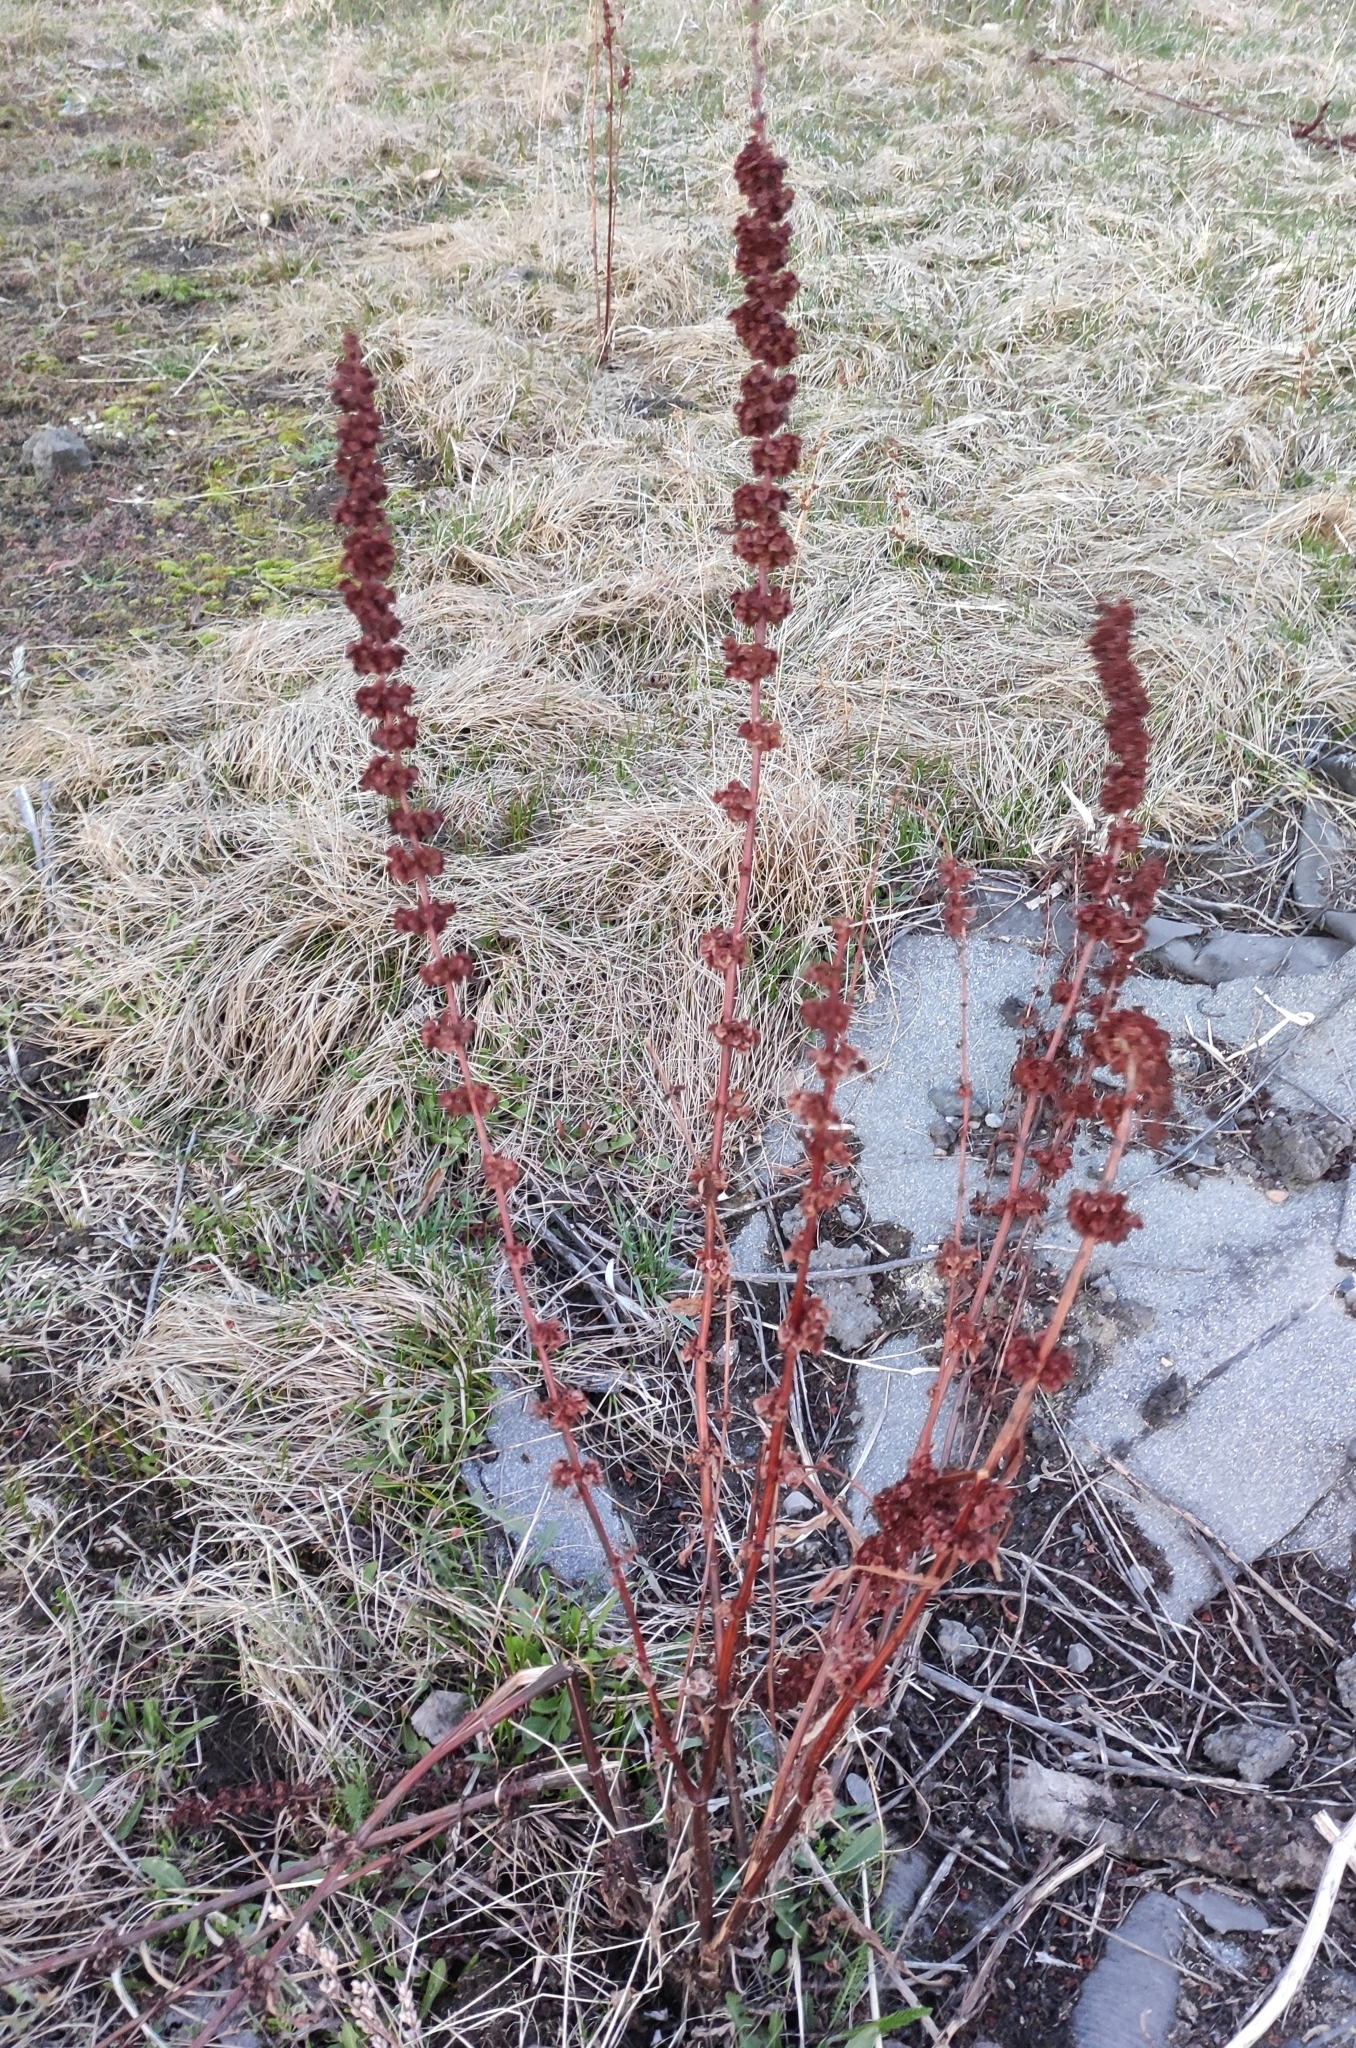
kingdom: Plantae
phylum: Tracheophyta
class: Magnoliopsida
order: Caryophyllales
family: Polygonaceae
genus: Rumex
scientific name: Rumex stenophyllus
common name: Narrowleaf dock
